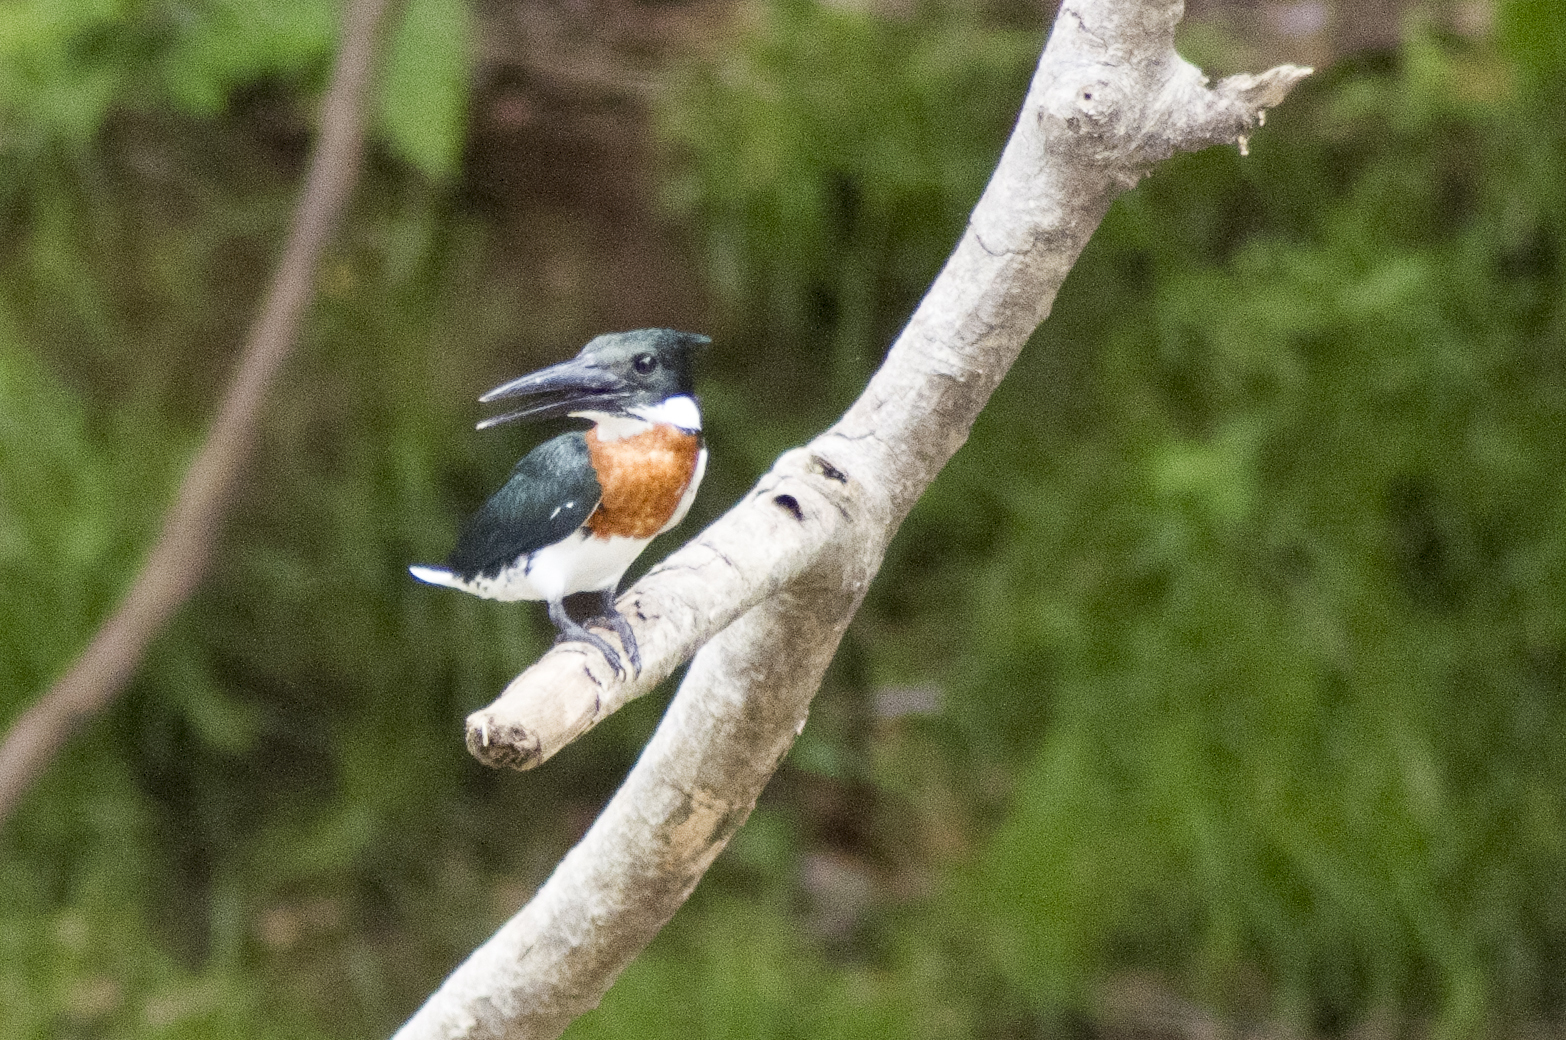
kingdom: Animalia
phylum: Chordata
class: Aves
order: Coraciiformes
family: Alcedinidae
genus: Chloroceryle
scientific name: Chloroceryle amazona
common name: Amazon kingfisher
